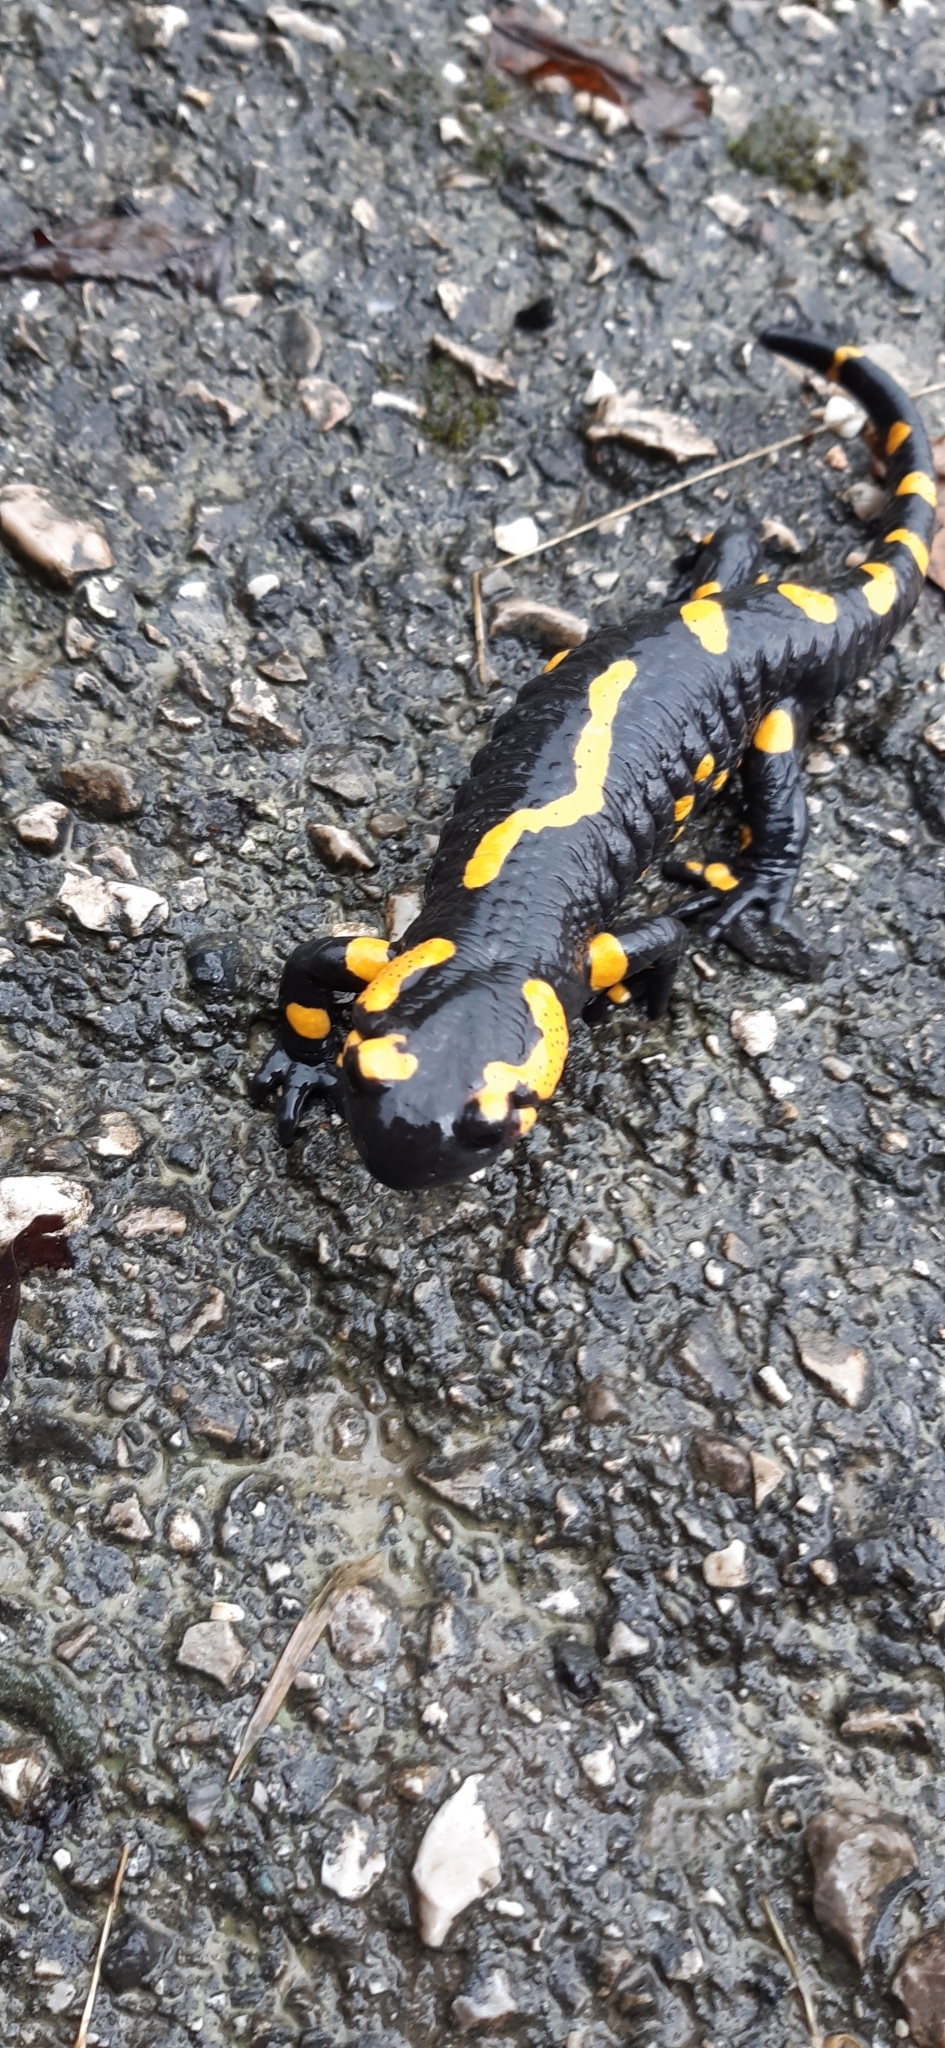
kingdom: Animalia
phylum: Chordata
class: Amphibia
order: Caudata
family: Salamandridae
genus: Salamandra
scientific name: Salamandra salamandra
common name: Fire salamander
